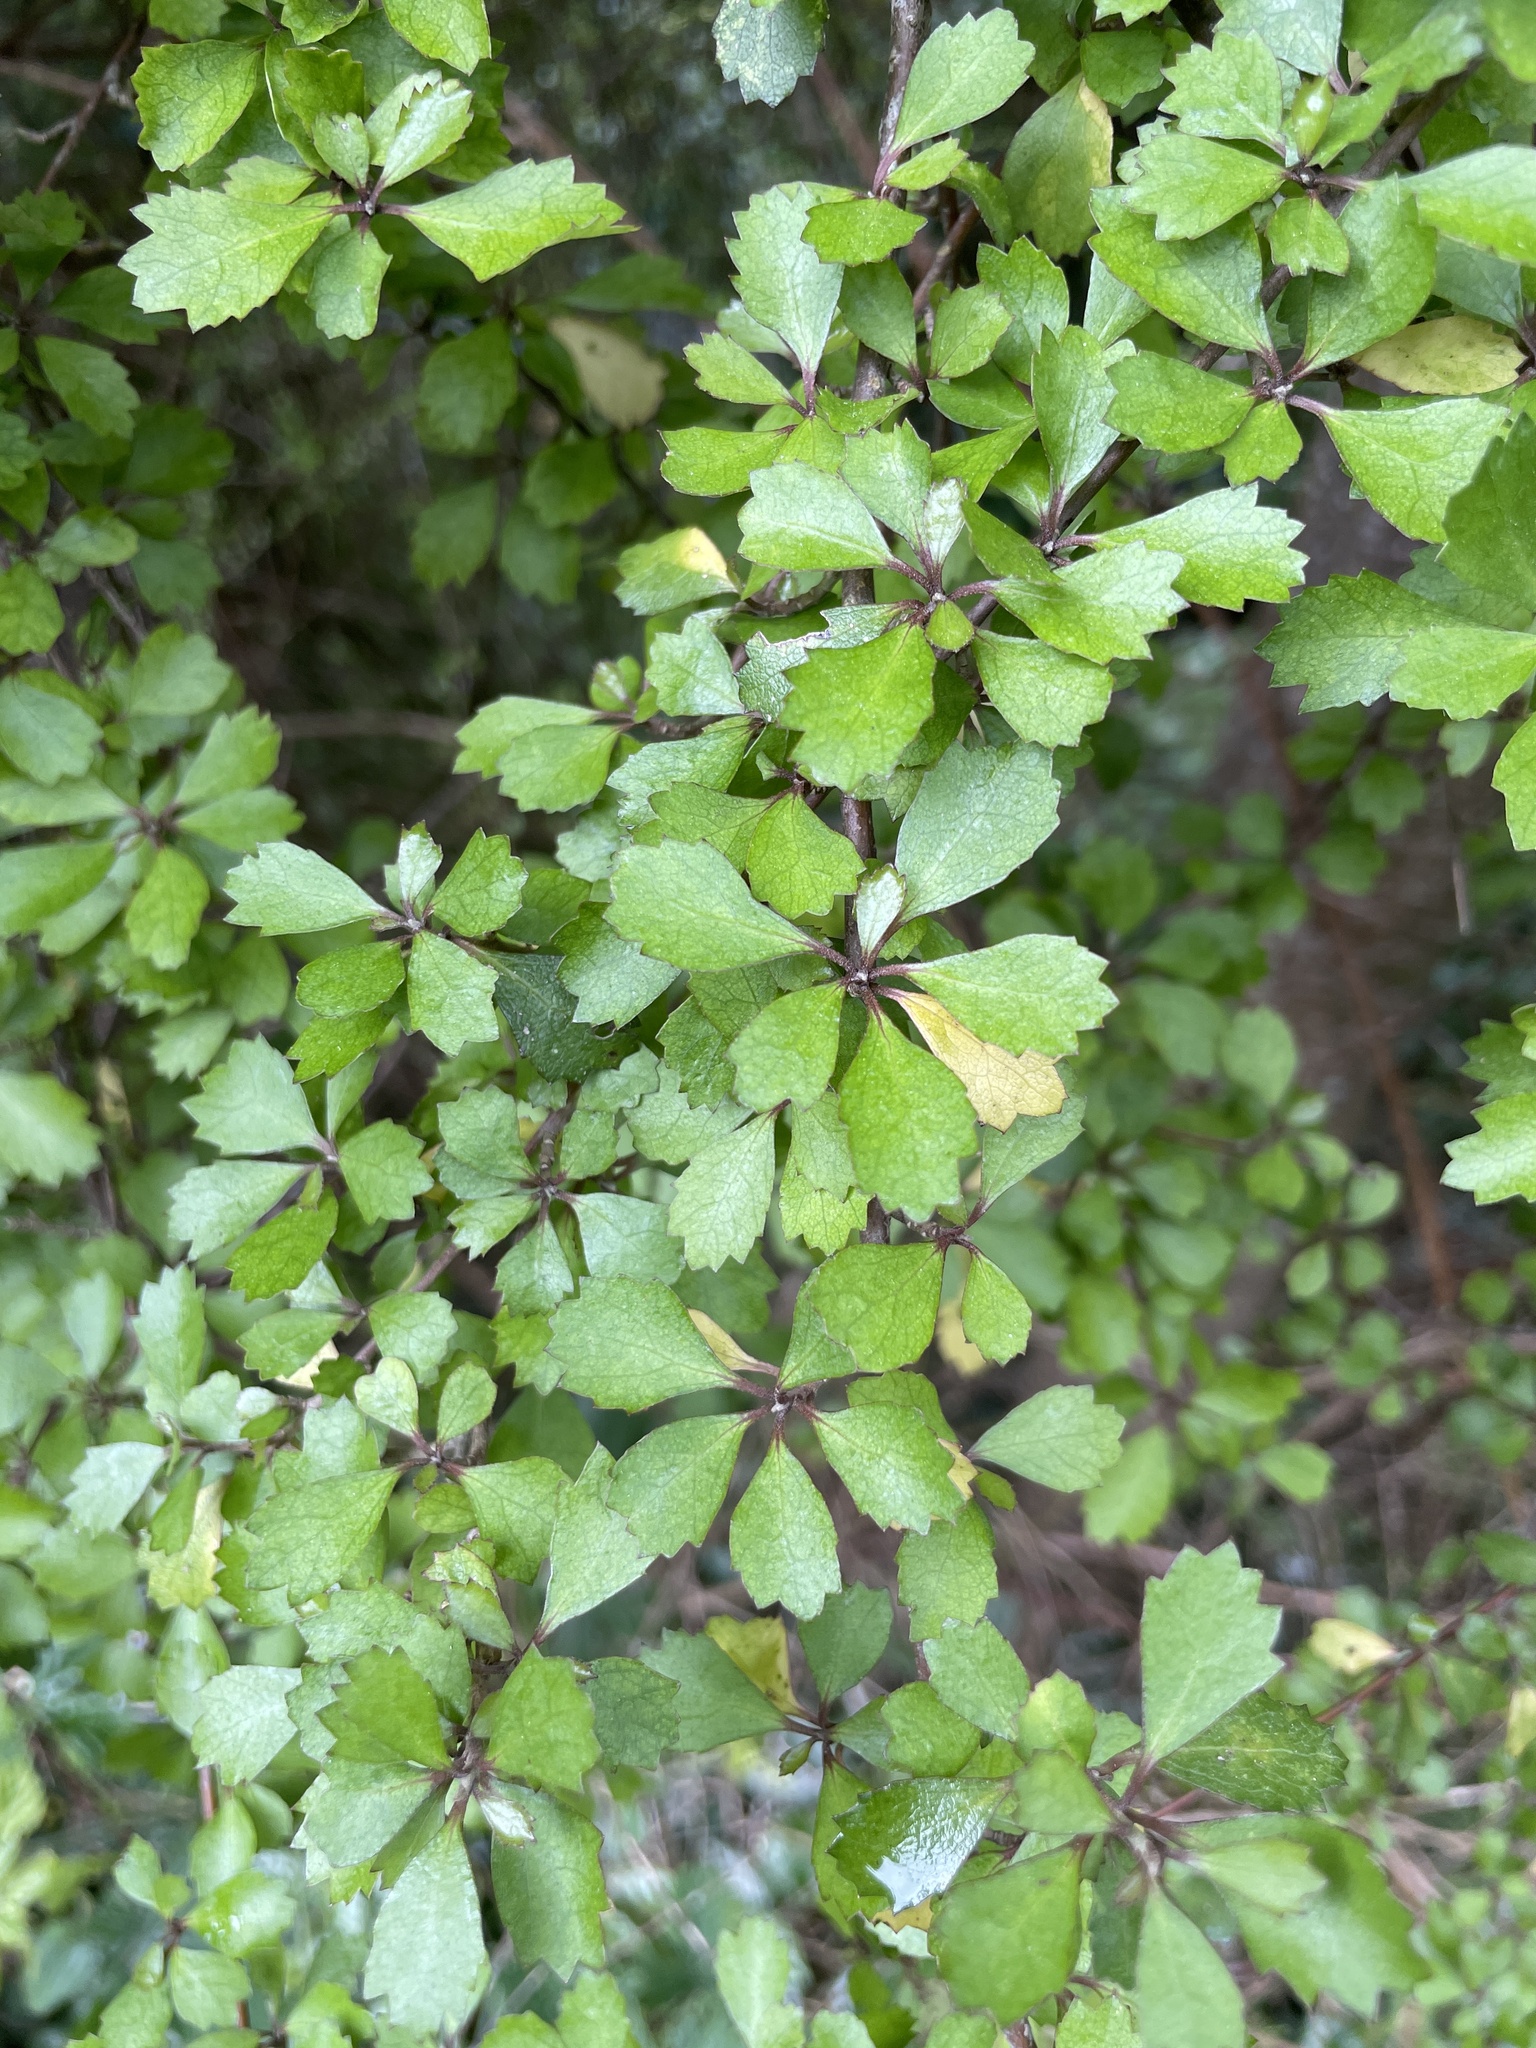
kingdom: Plantae
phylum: Tracheophyta
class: Magnoliopsida
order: Malvales
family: Malvaceae
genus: Hoheria
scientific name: Hoheria angustifolia
